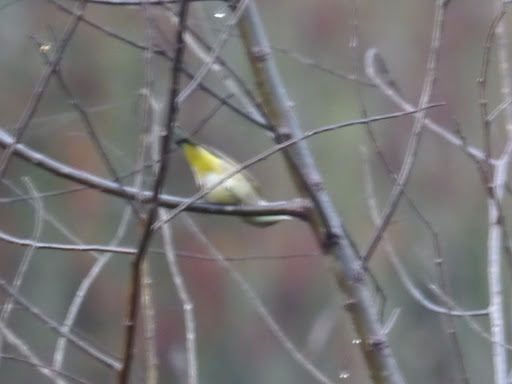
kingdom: Animalia
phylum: Chordata
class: Aves
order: Passeriformes
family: Parulidae
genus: Setophaga
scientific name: Setophaga palmarum
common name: Palm warbler
